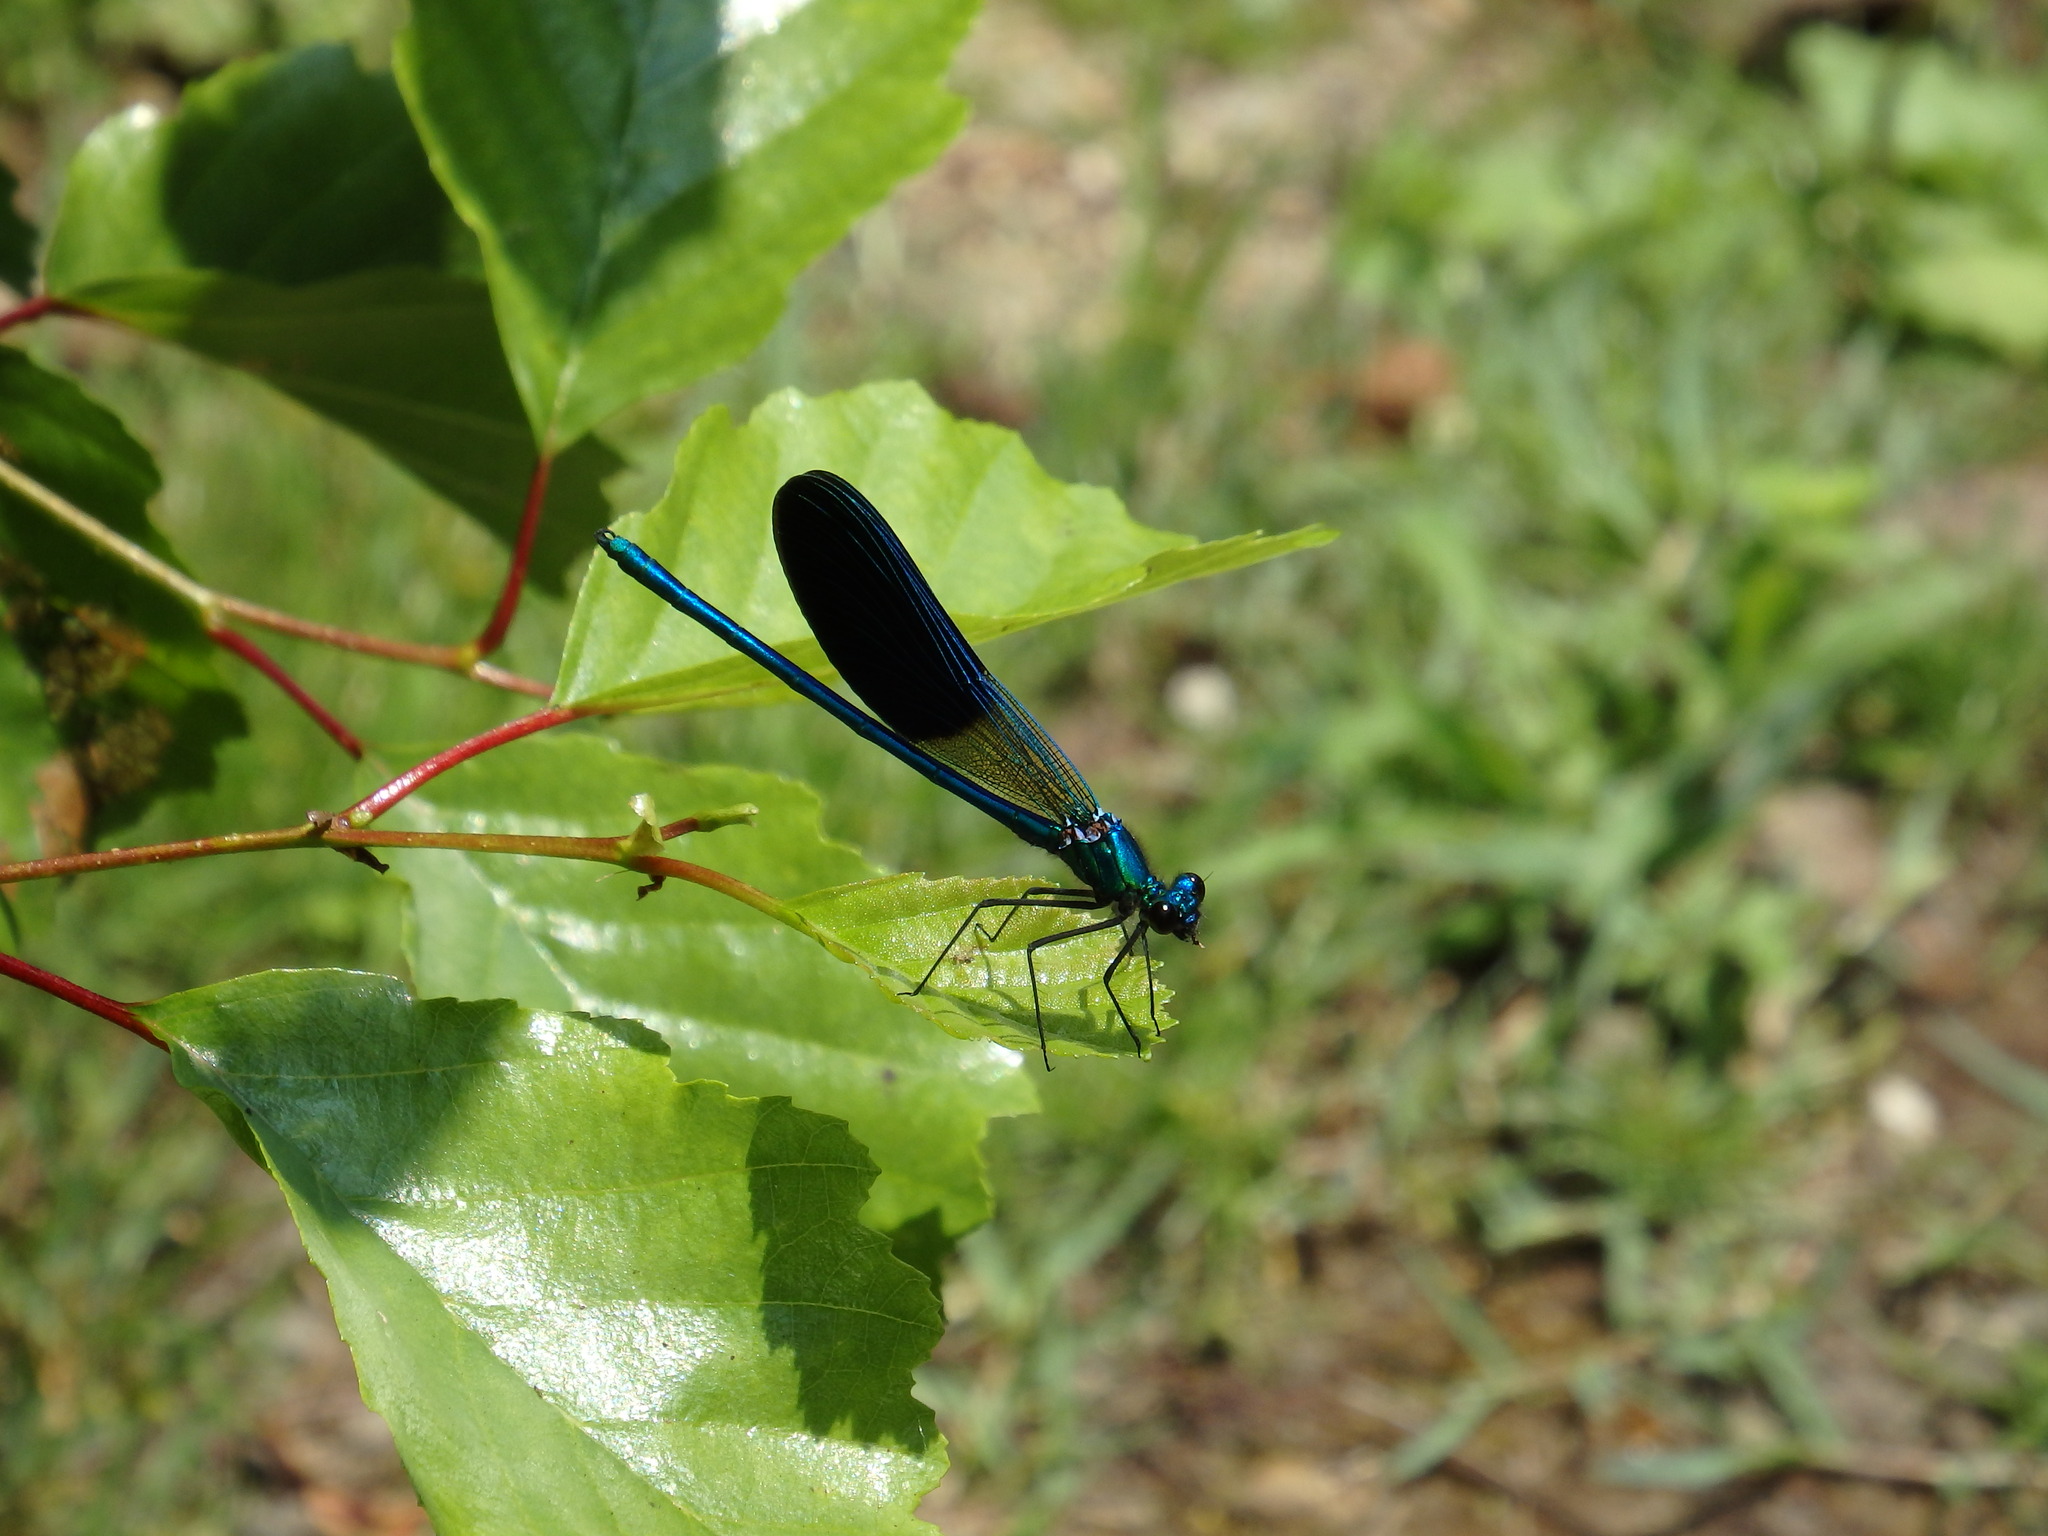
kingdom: Animalia
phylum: Arthropoda
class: Insecta
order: Odonata
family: Calopterygidae
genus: Calopteryx
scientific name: Calopteryx xanthostoma
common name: Western demoiselle
